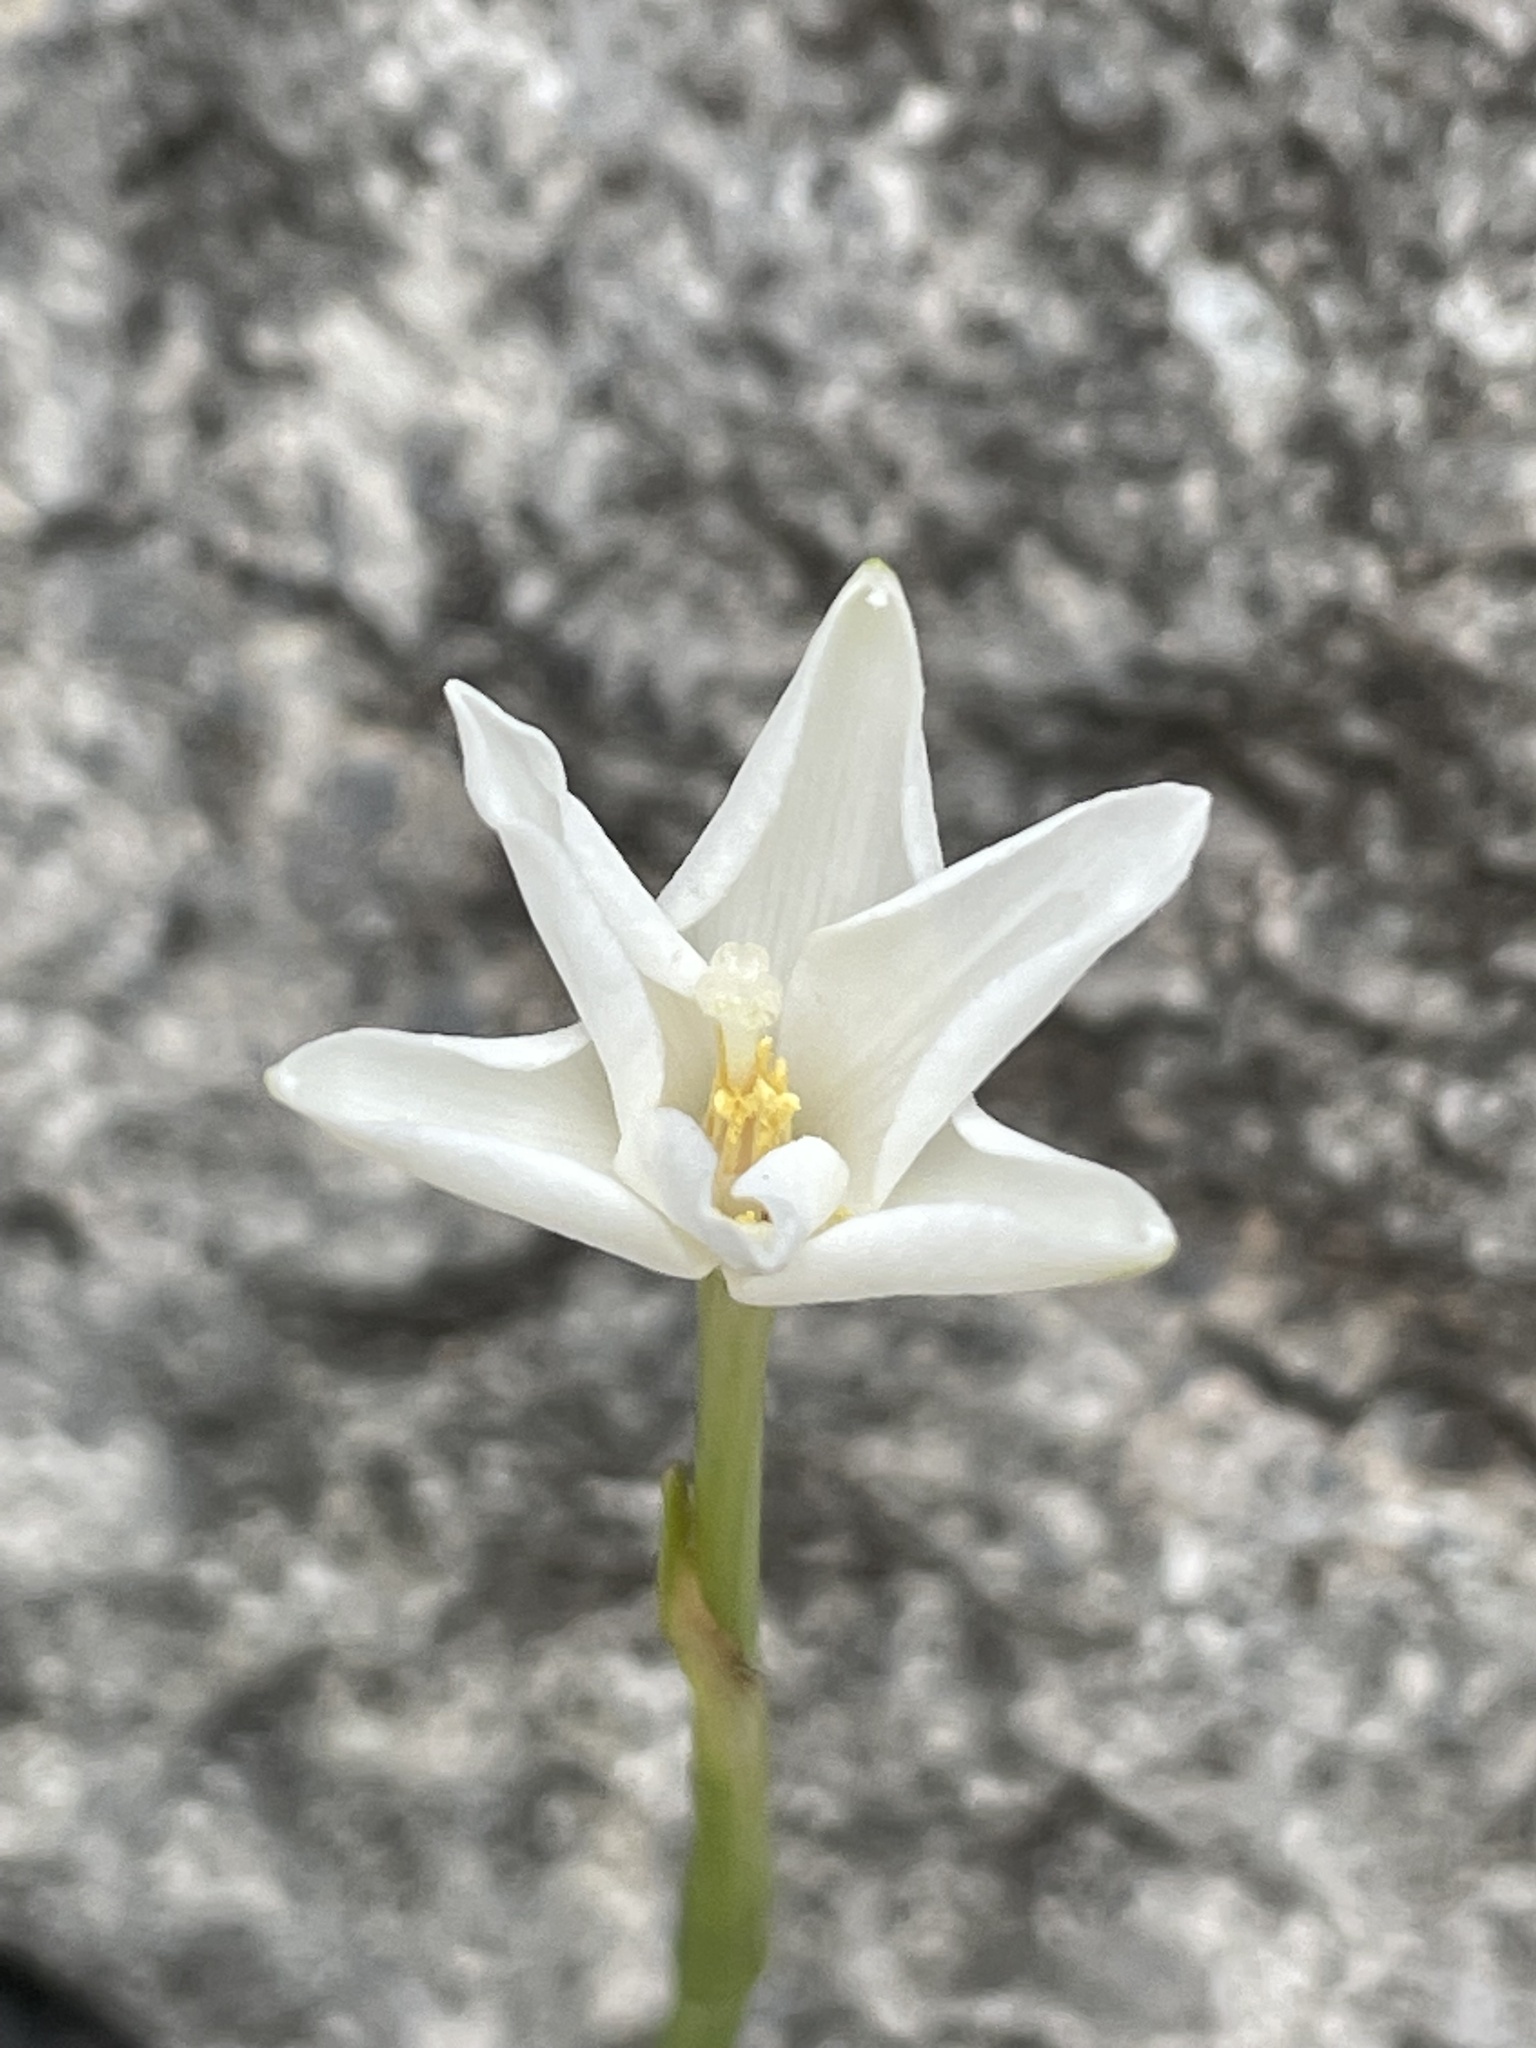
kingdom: Plantae
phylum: Tracheophyta
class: Liliopsida
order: Asparagales
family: Amaryllidaceae
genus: Zephyranthes
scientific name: Zephyranthes chlorosolen
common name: Evening rain-lily
